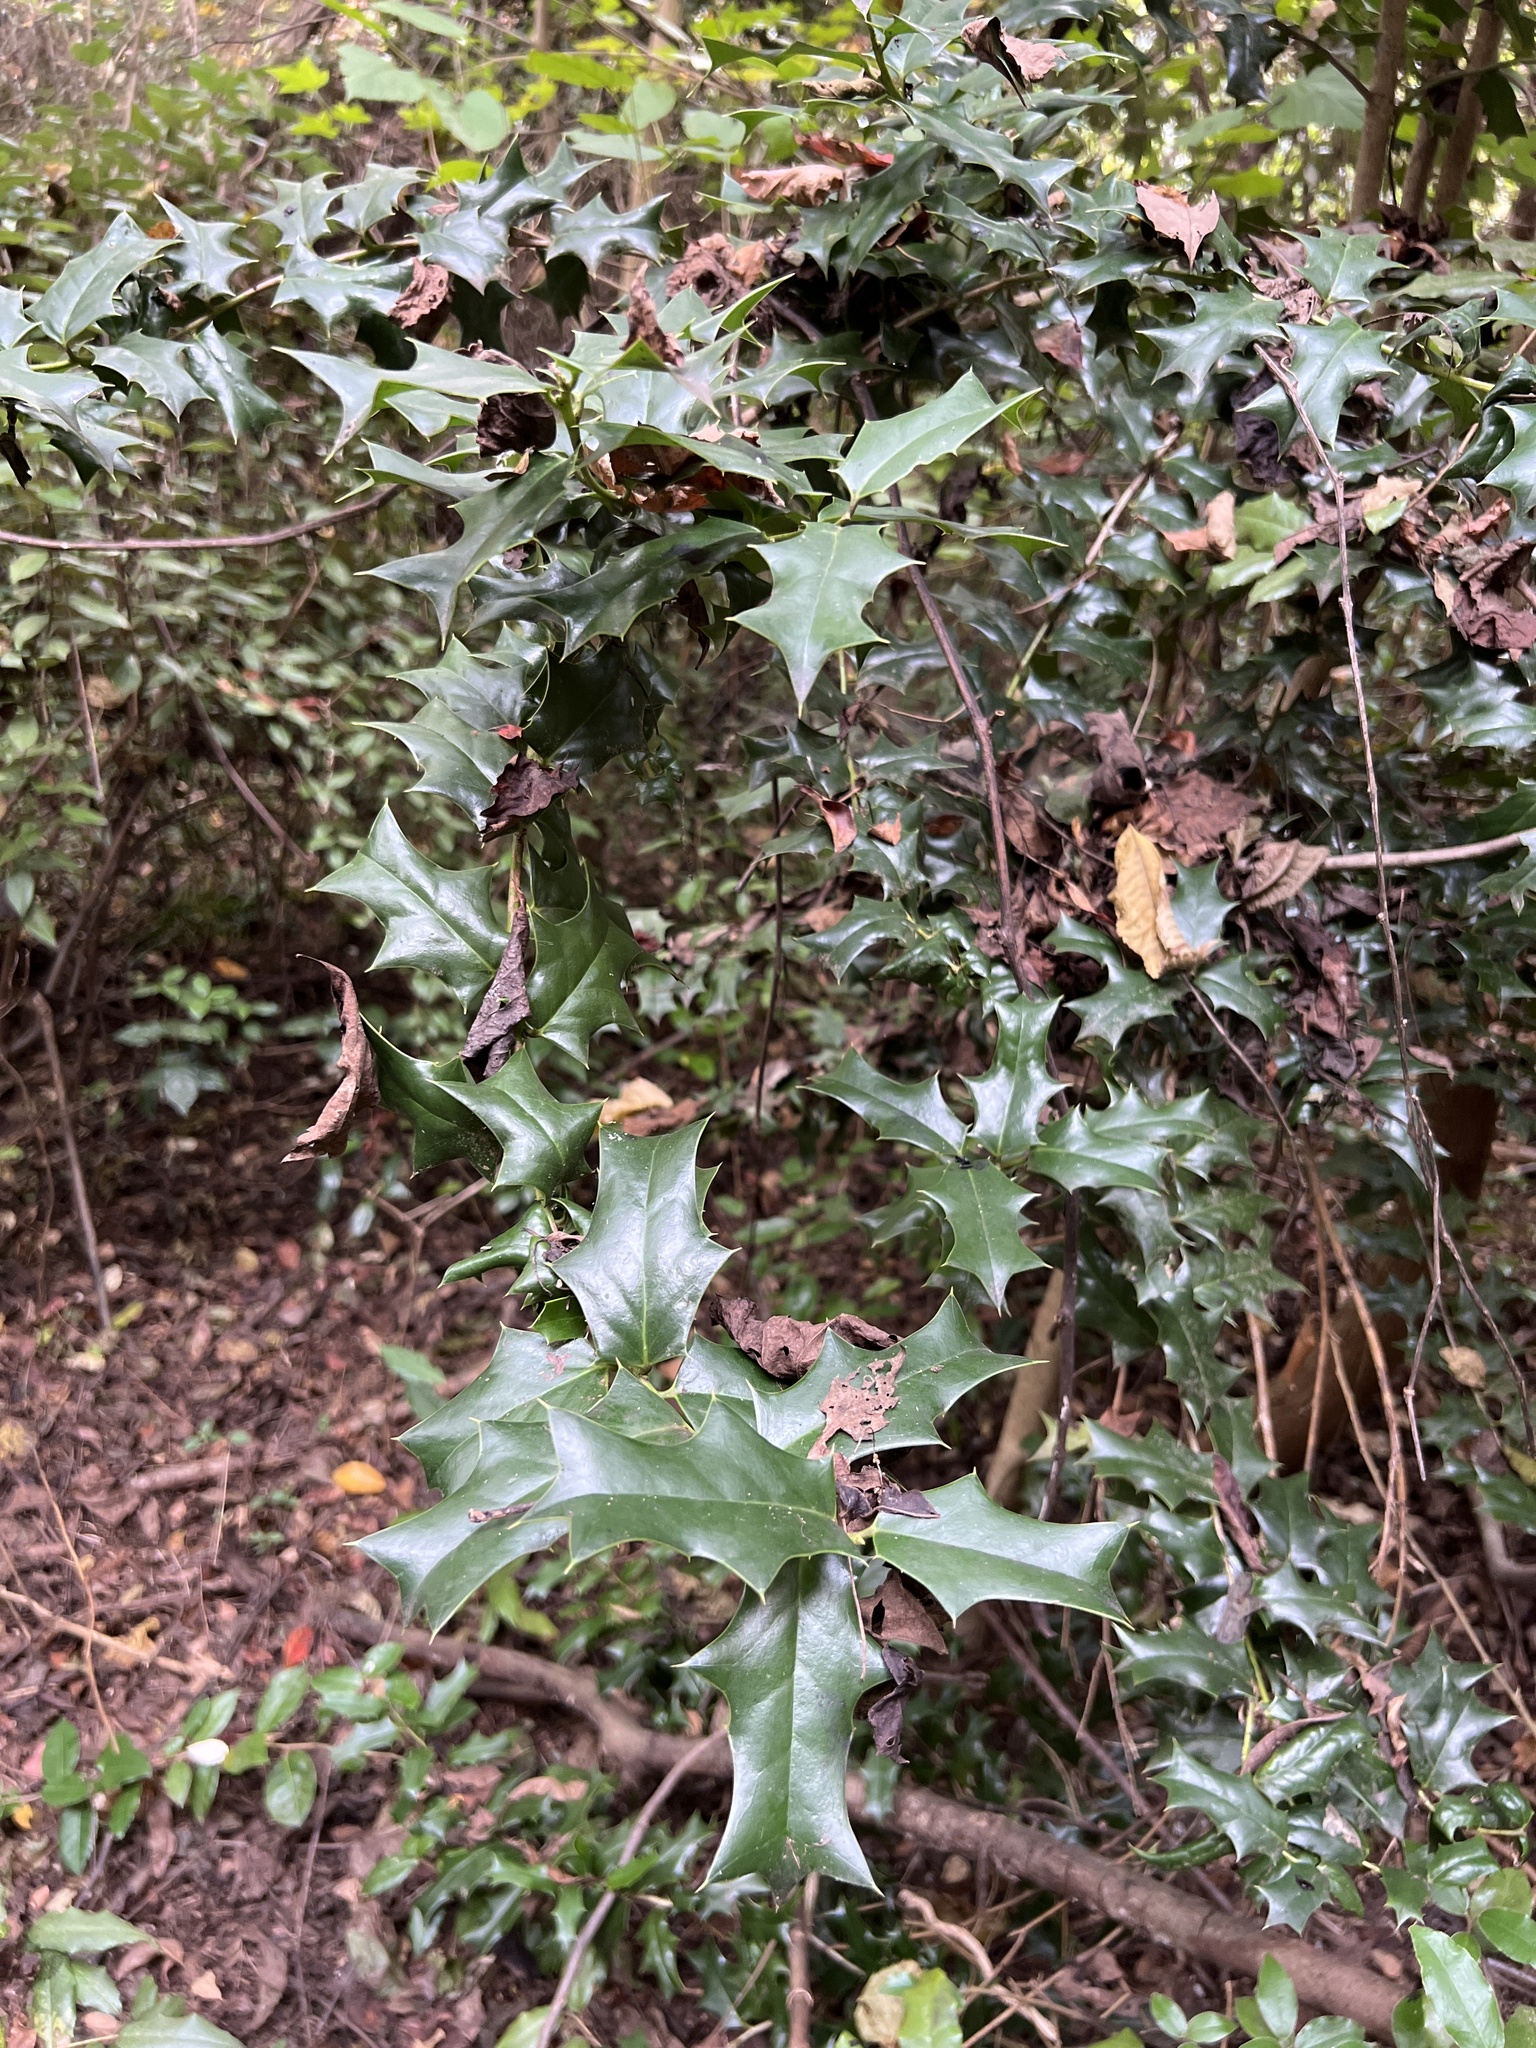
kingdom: Plantae
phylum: Tracheophyta
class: Magnoliopsida
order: Aquifoliales
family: Aquifoliaceae
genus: Ilex
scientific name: Ilex cornuta
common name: Chinese holly
